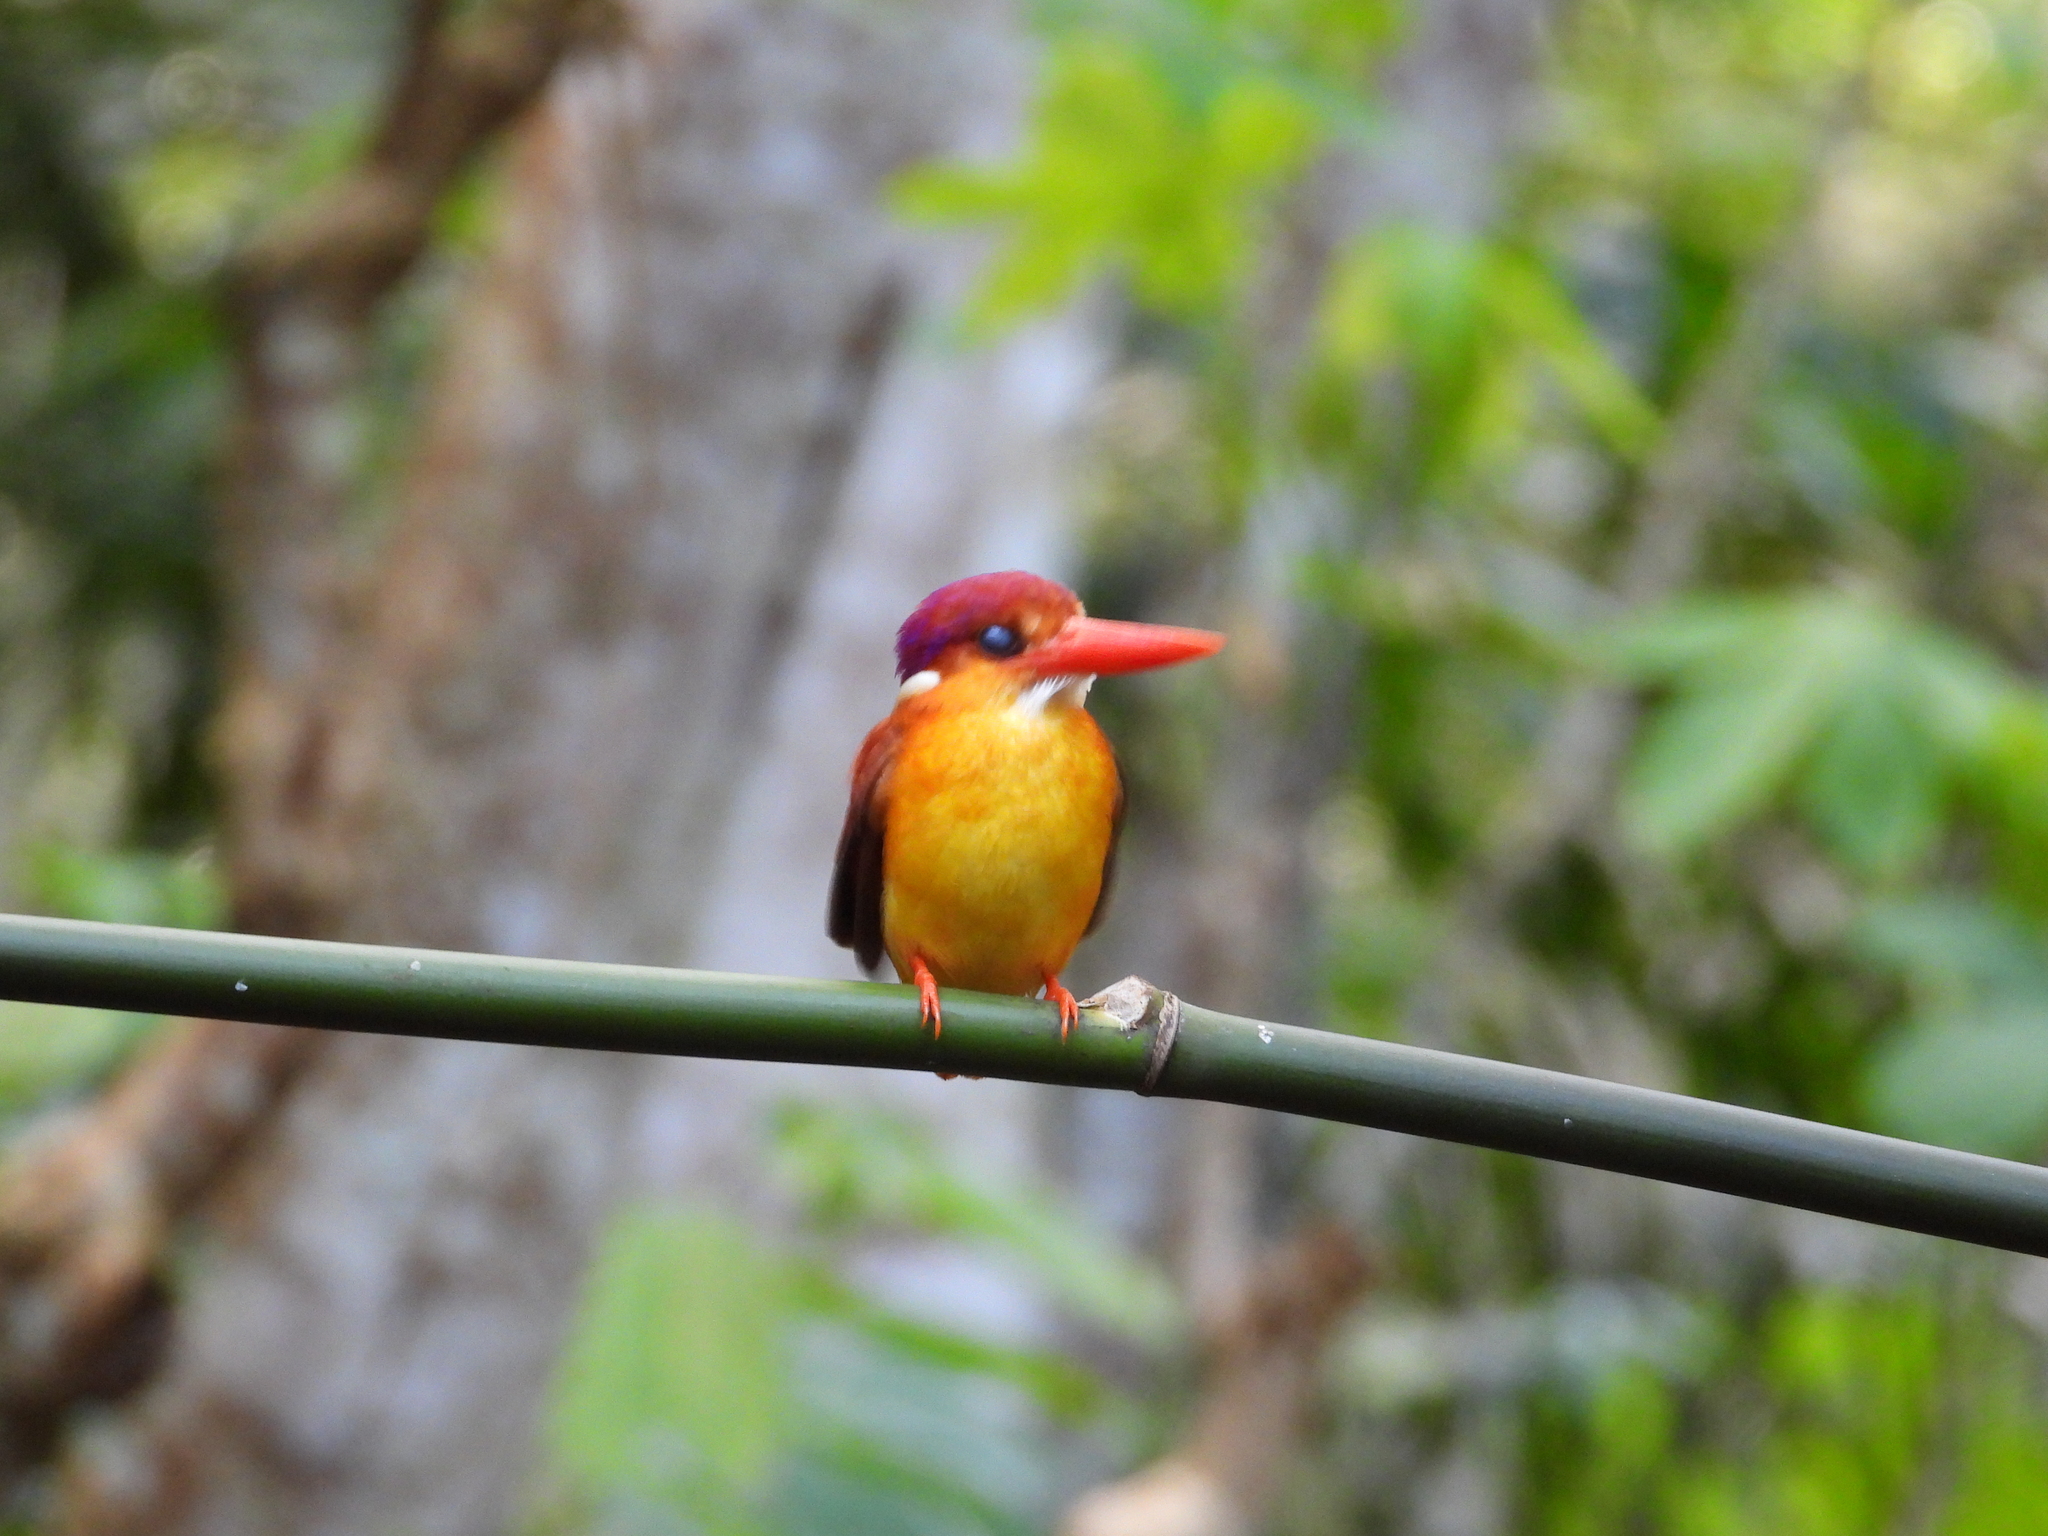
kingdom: Animalia
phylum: Chordata
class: Aves
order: Coraciiformes
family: Alcedinidae
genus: Ceyx
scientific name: Ceyx erithaca
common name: Oriental dwarf kingfisher
